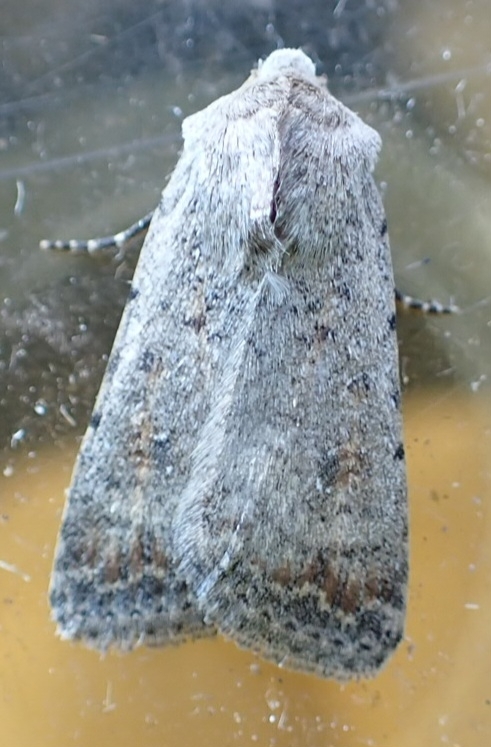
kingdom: Animalia
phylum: Arthropoda
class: Insecta
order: Lepidoptera
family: Noctuidae
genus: Caradrina
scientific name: Caradrina clavipalpis
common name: Pale mottled willow
